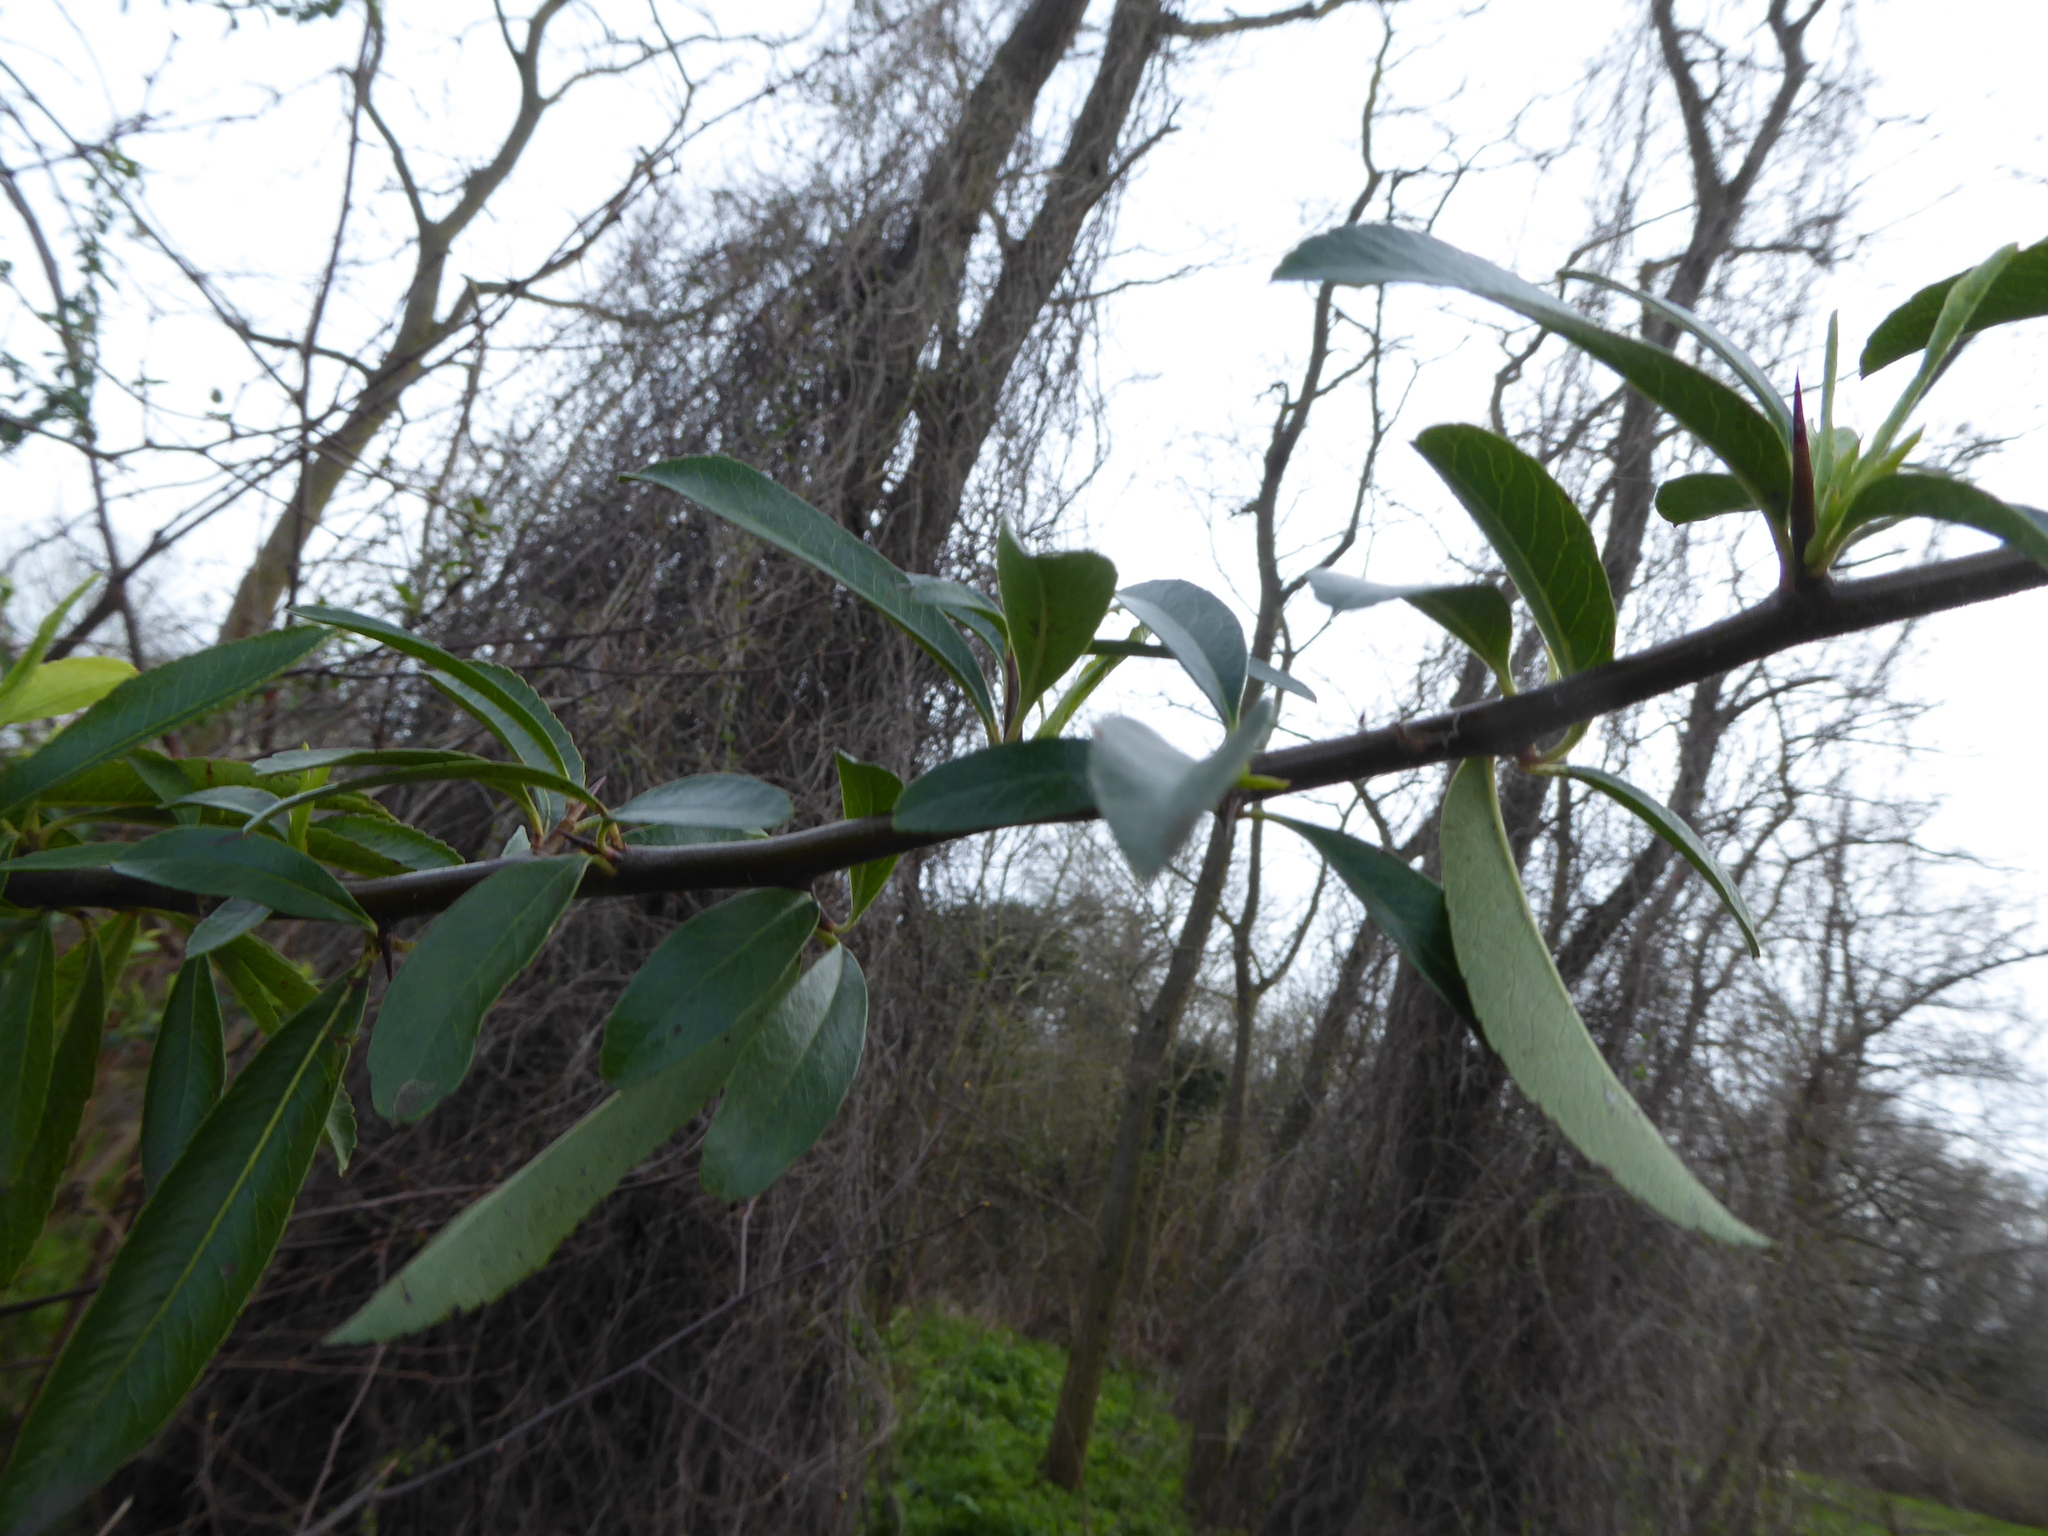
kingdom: Plantae
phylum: Tracheophyta
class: Magnoliopsida
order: Rosales
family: Rosaceae
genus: Pyracantha
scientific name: Pyracantha coccinea
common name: Firethorn
